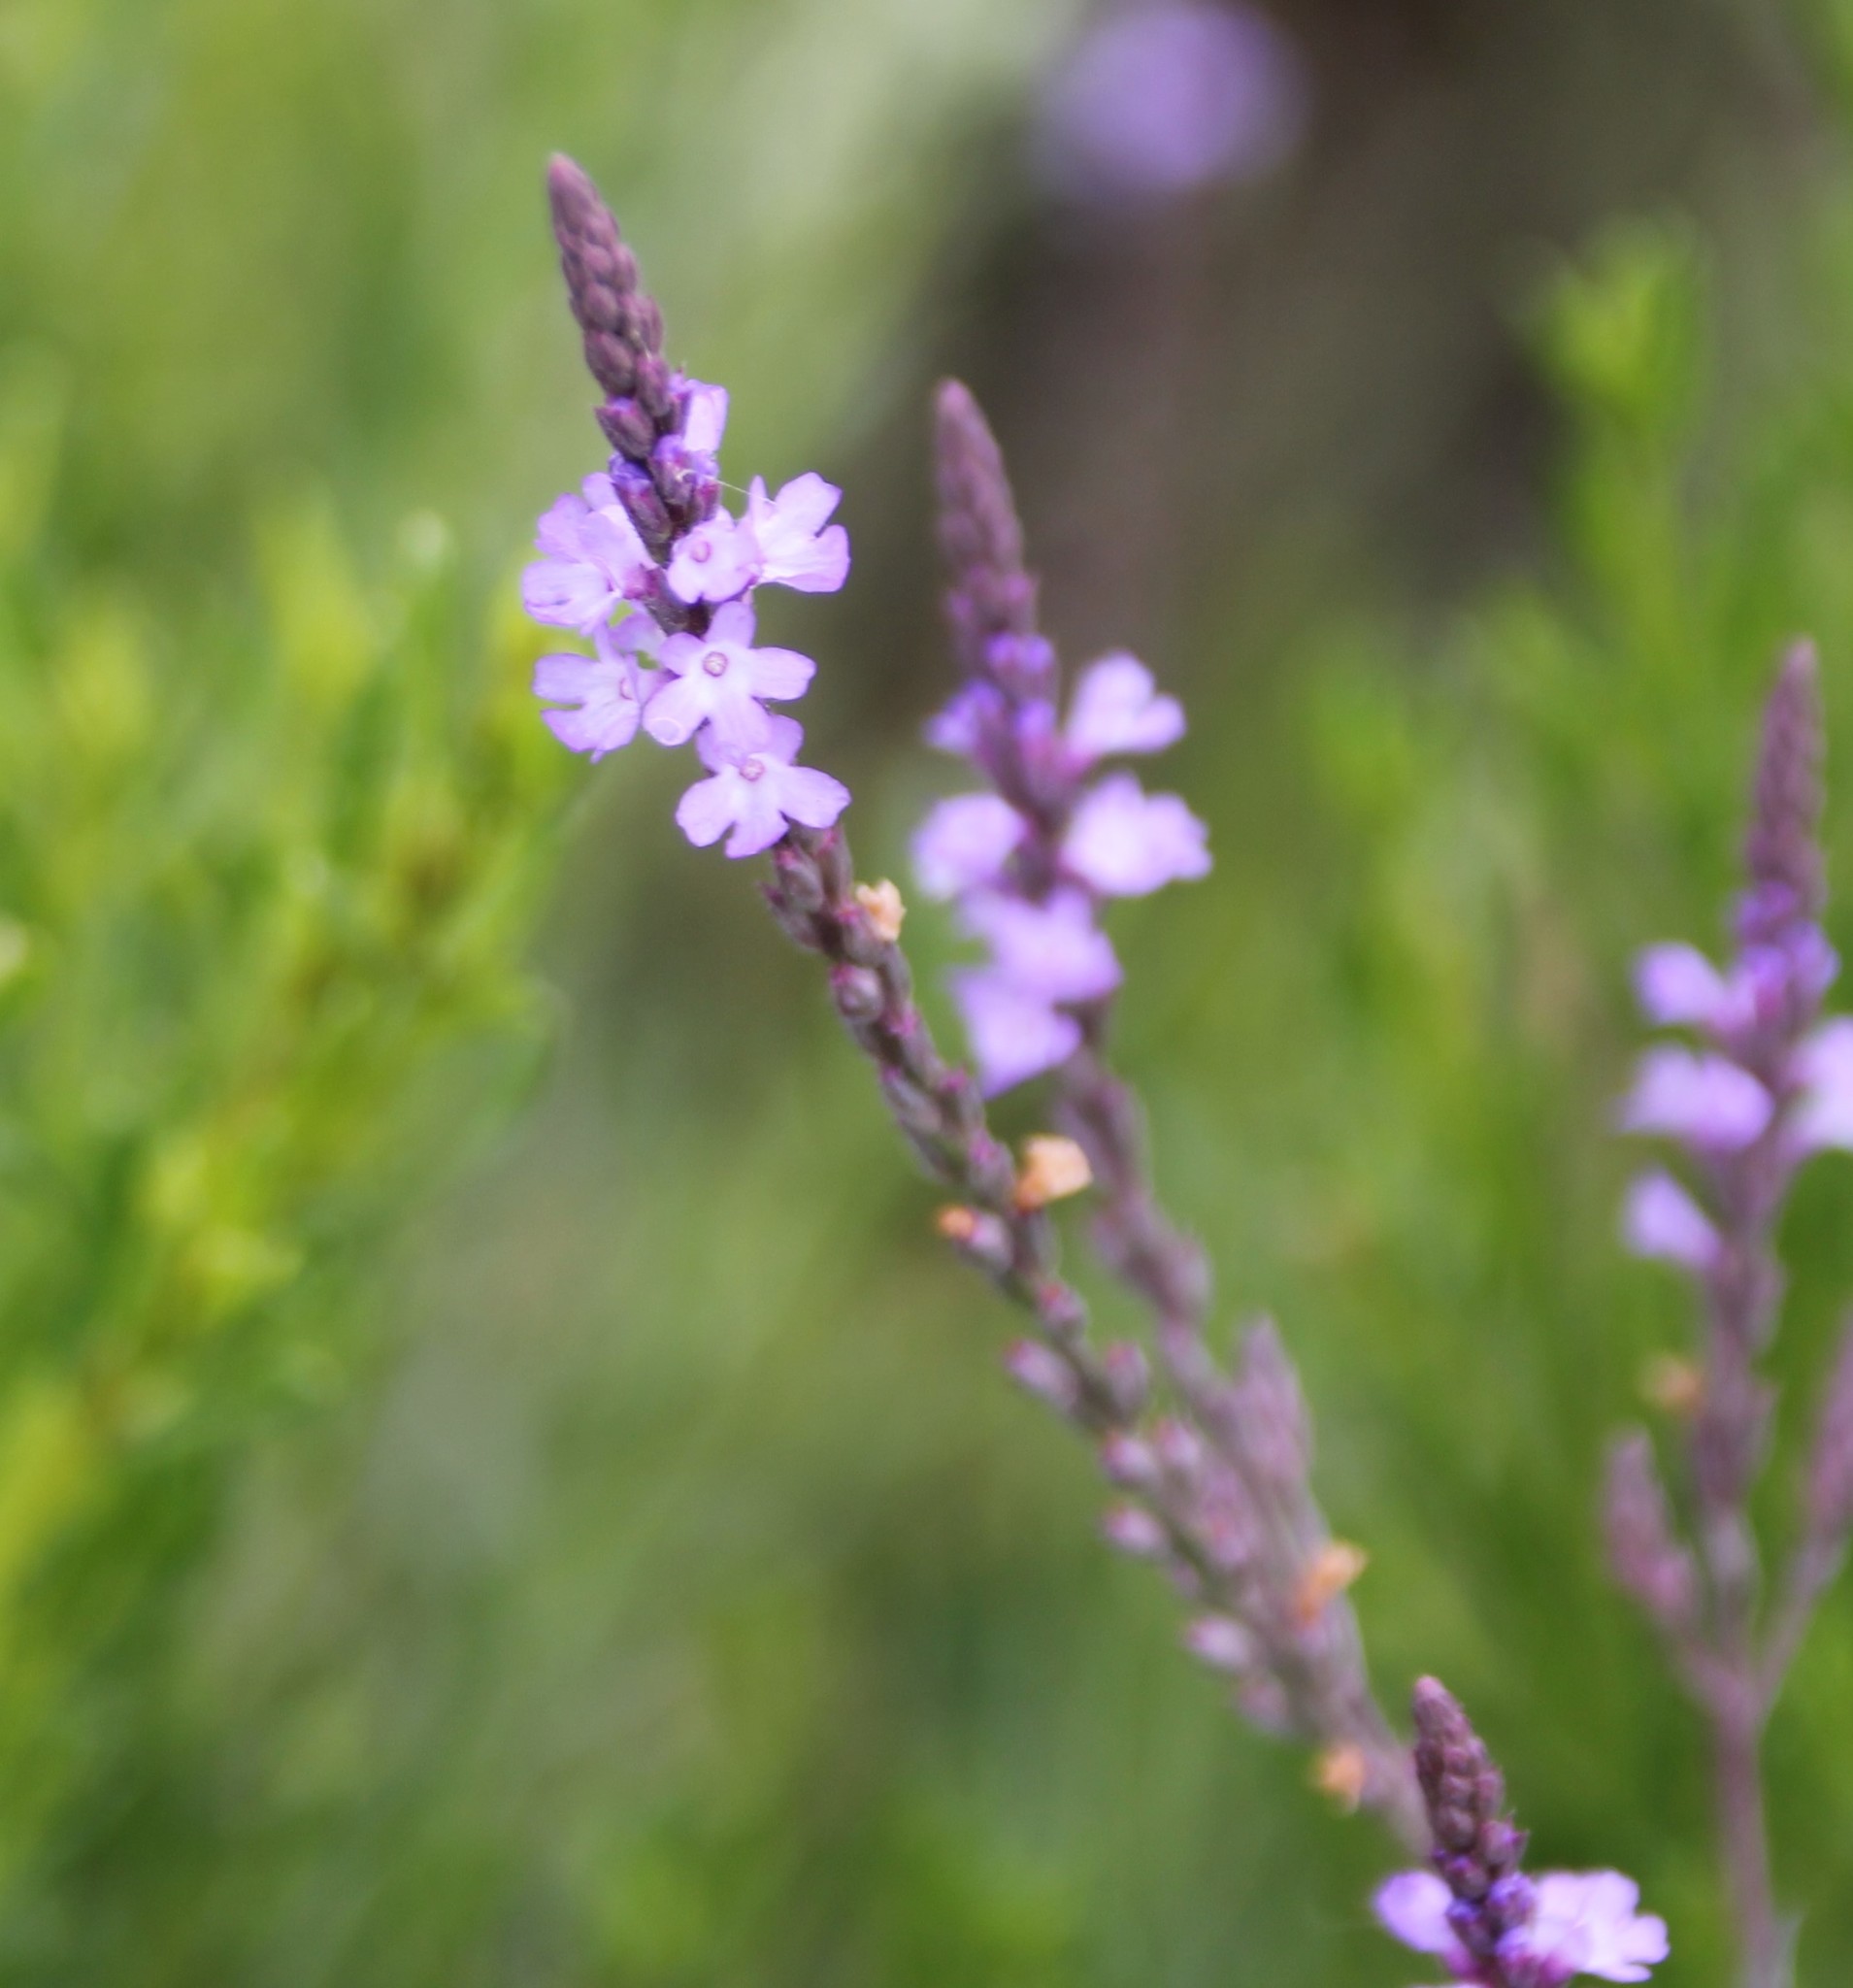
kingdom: Plantae
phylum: Tracheophyta
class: Magnoliopsida
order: Lamiales
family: Verbenaceae
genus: Verbena
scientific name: Verbena menthifolia
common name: Mint-leaf vervain
